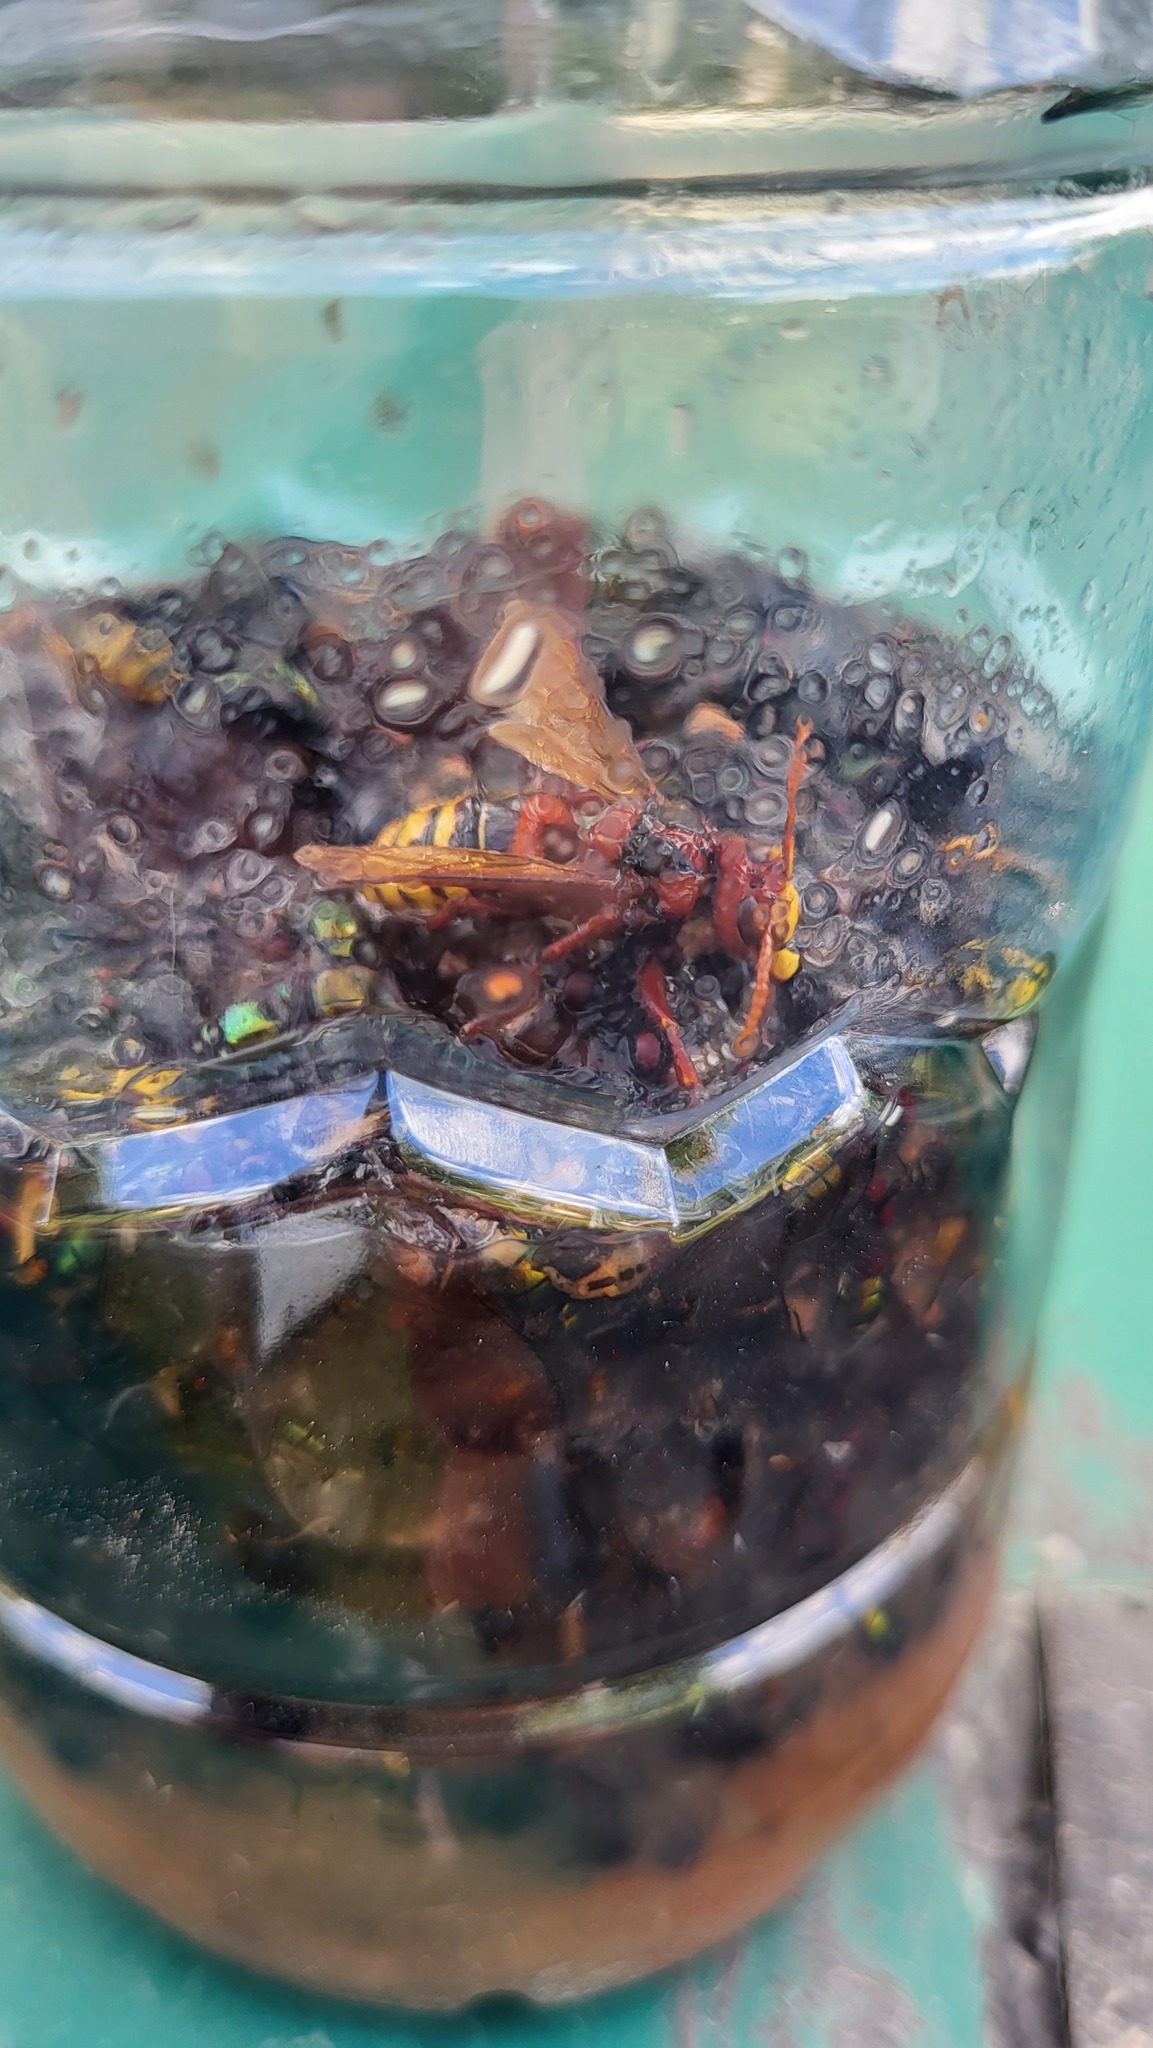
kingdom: Animalia
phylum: Arthropoda
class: Insecta
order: Hymenoptera
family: Vespidae
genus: Vespa
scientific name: Vespa crabro
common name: Hornet
